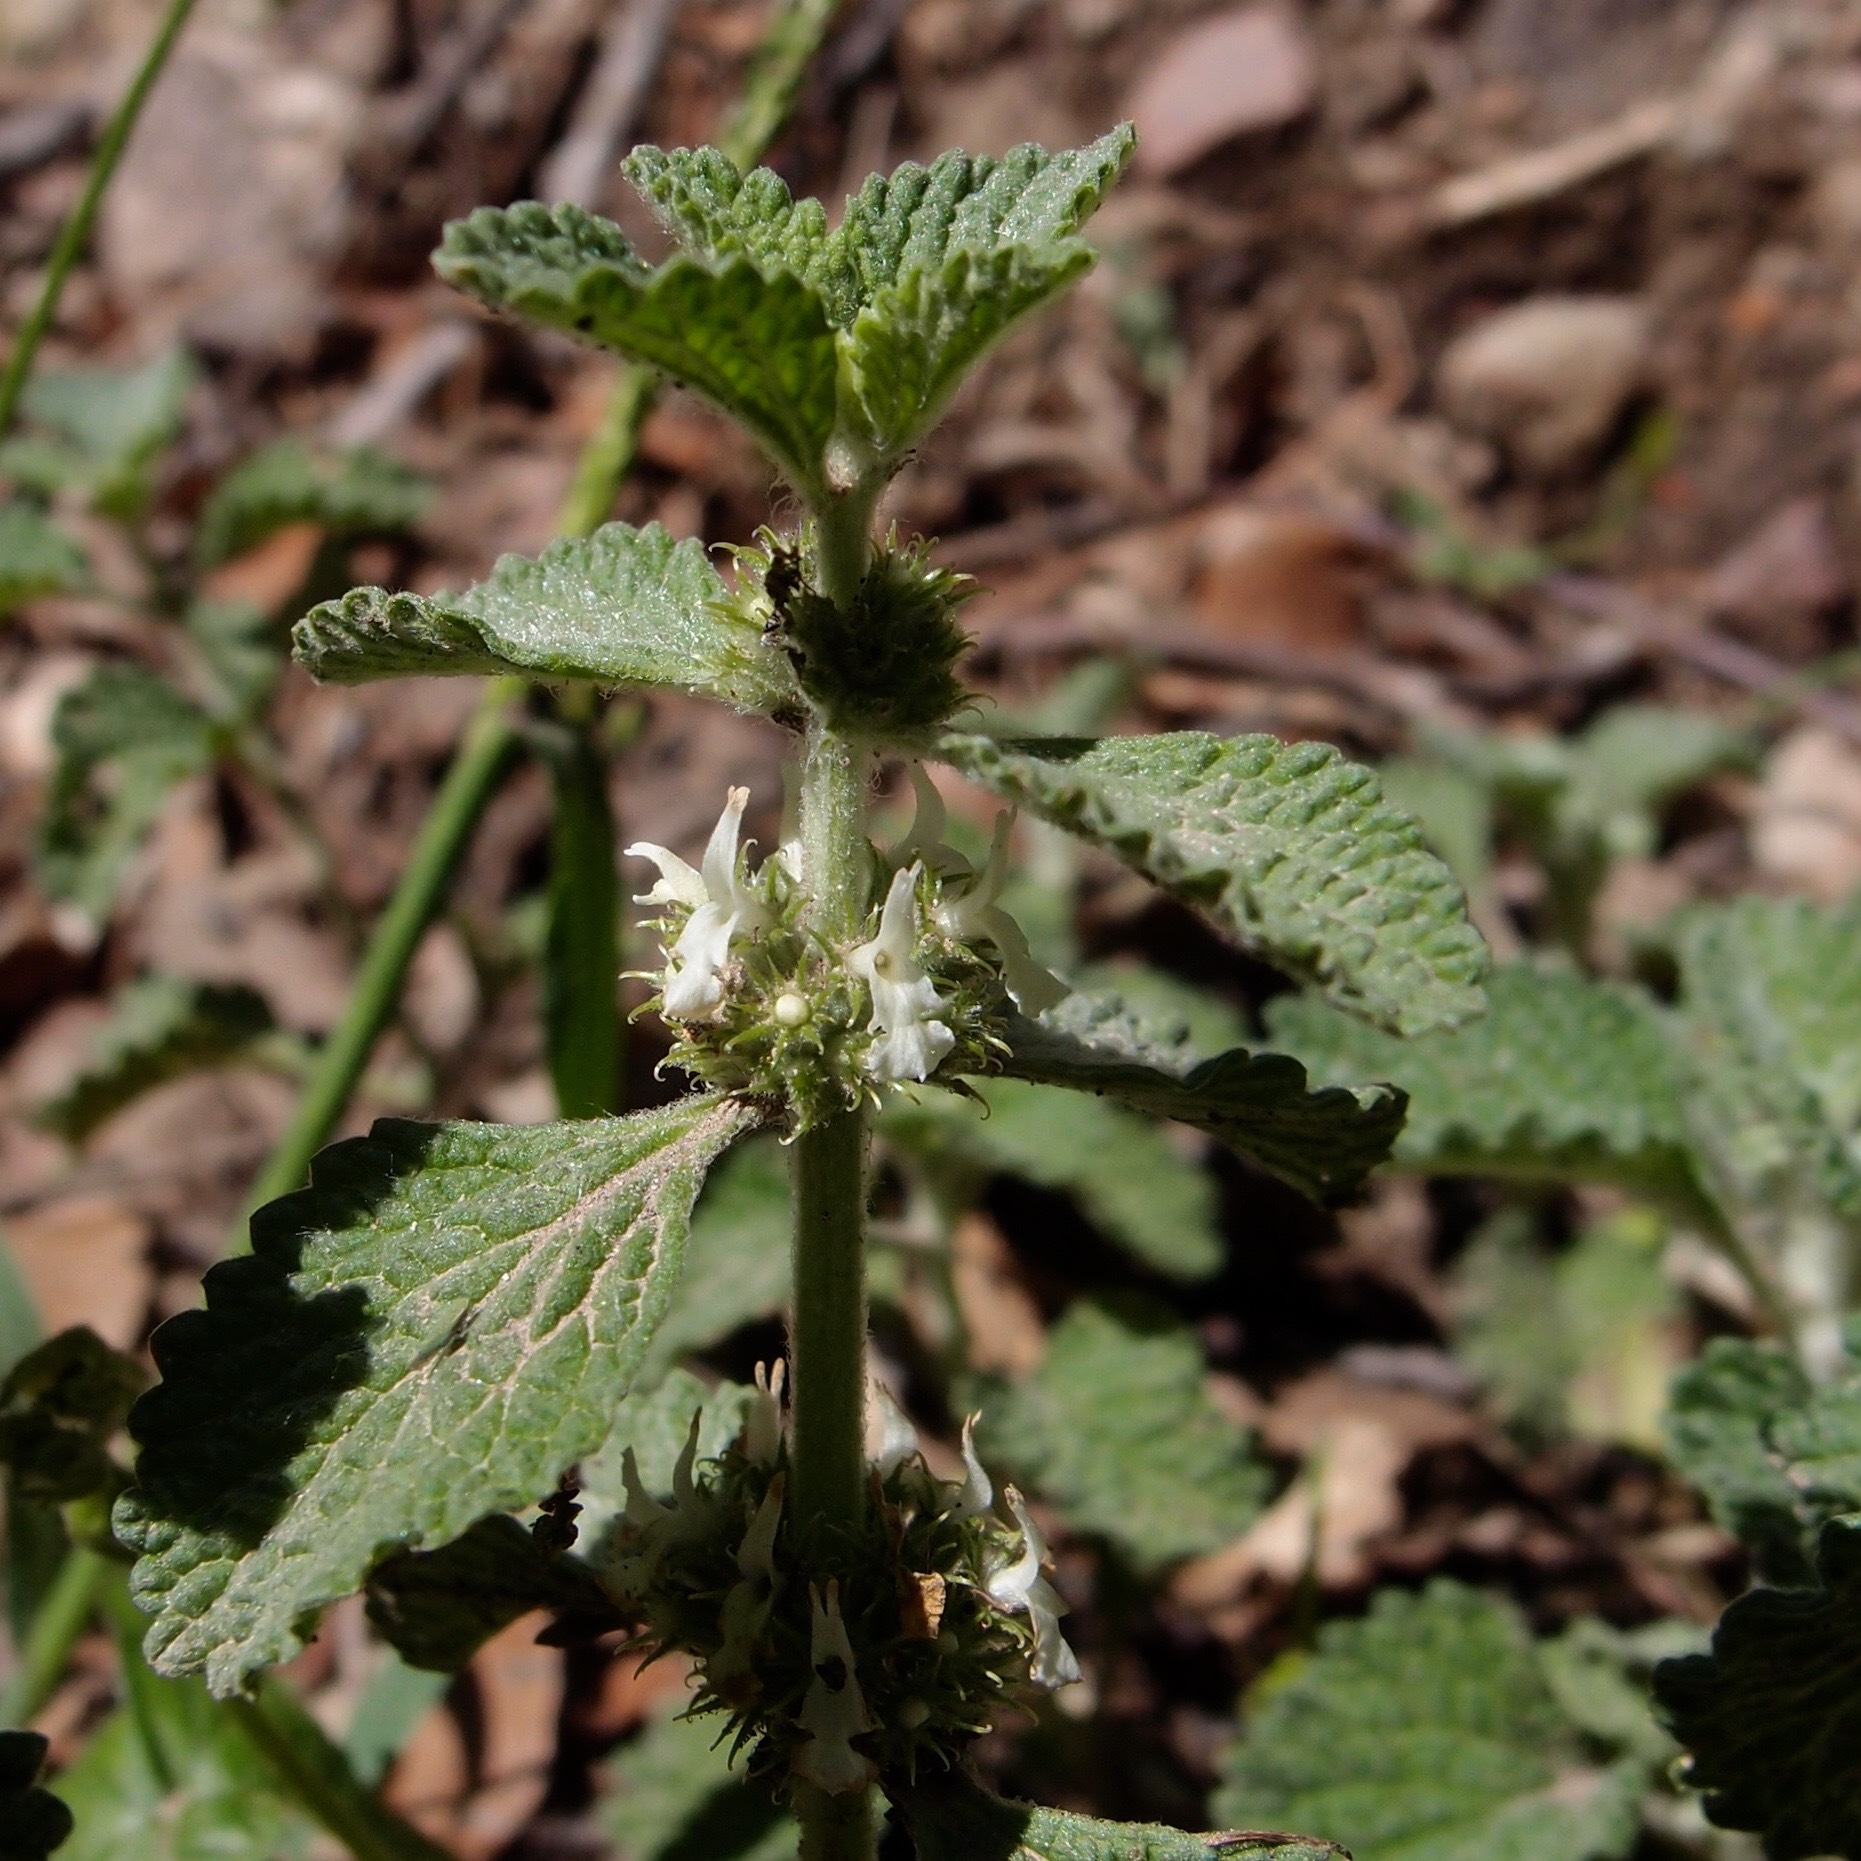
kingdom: Plantae
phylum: Tracheophyta
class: Magnoliopsida
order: Lamiales
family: Lamiaceae
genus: Marrubium
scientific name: Marrubium vulgare
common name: Horehound
